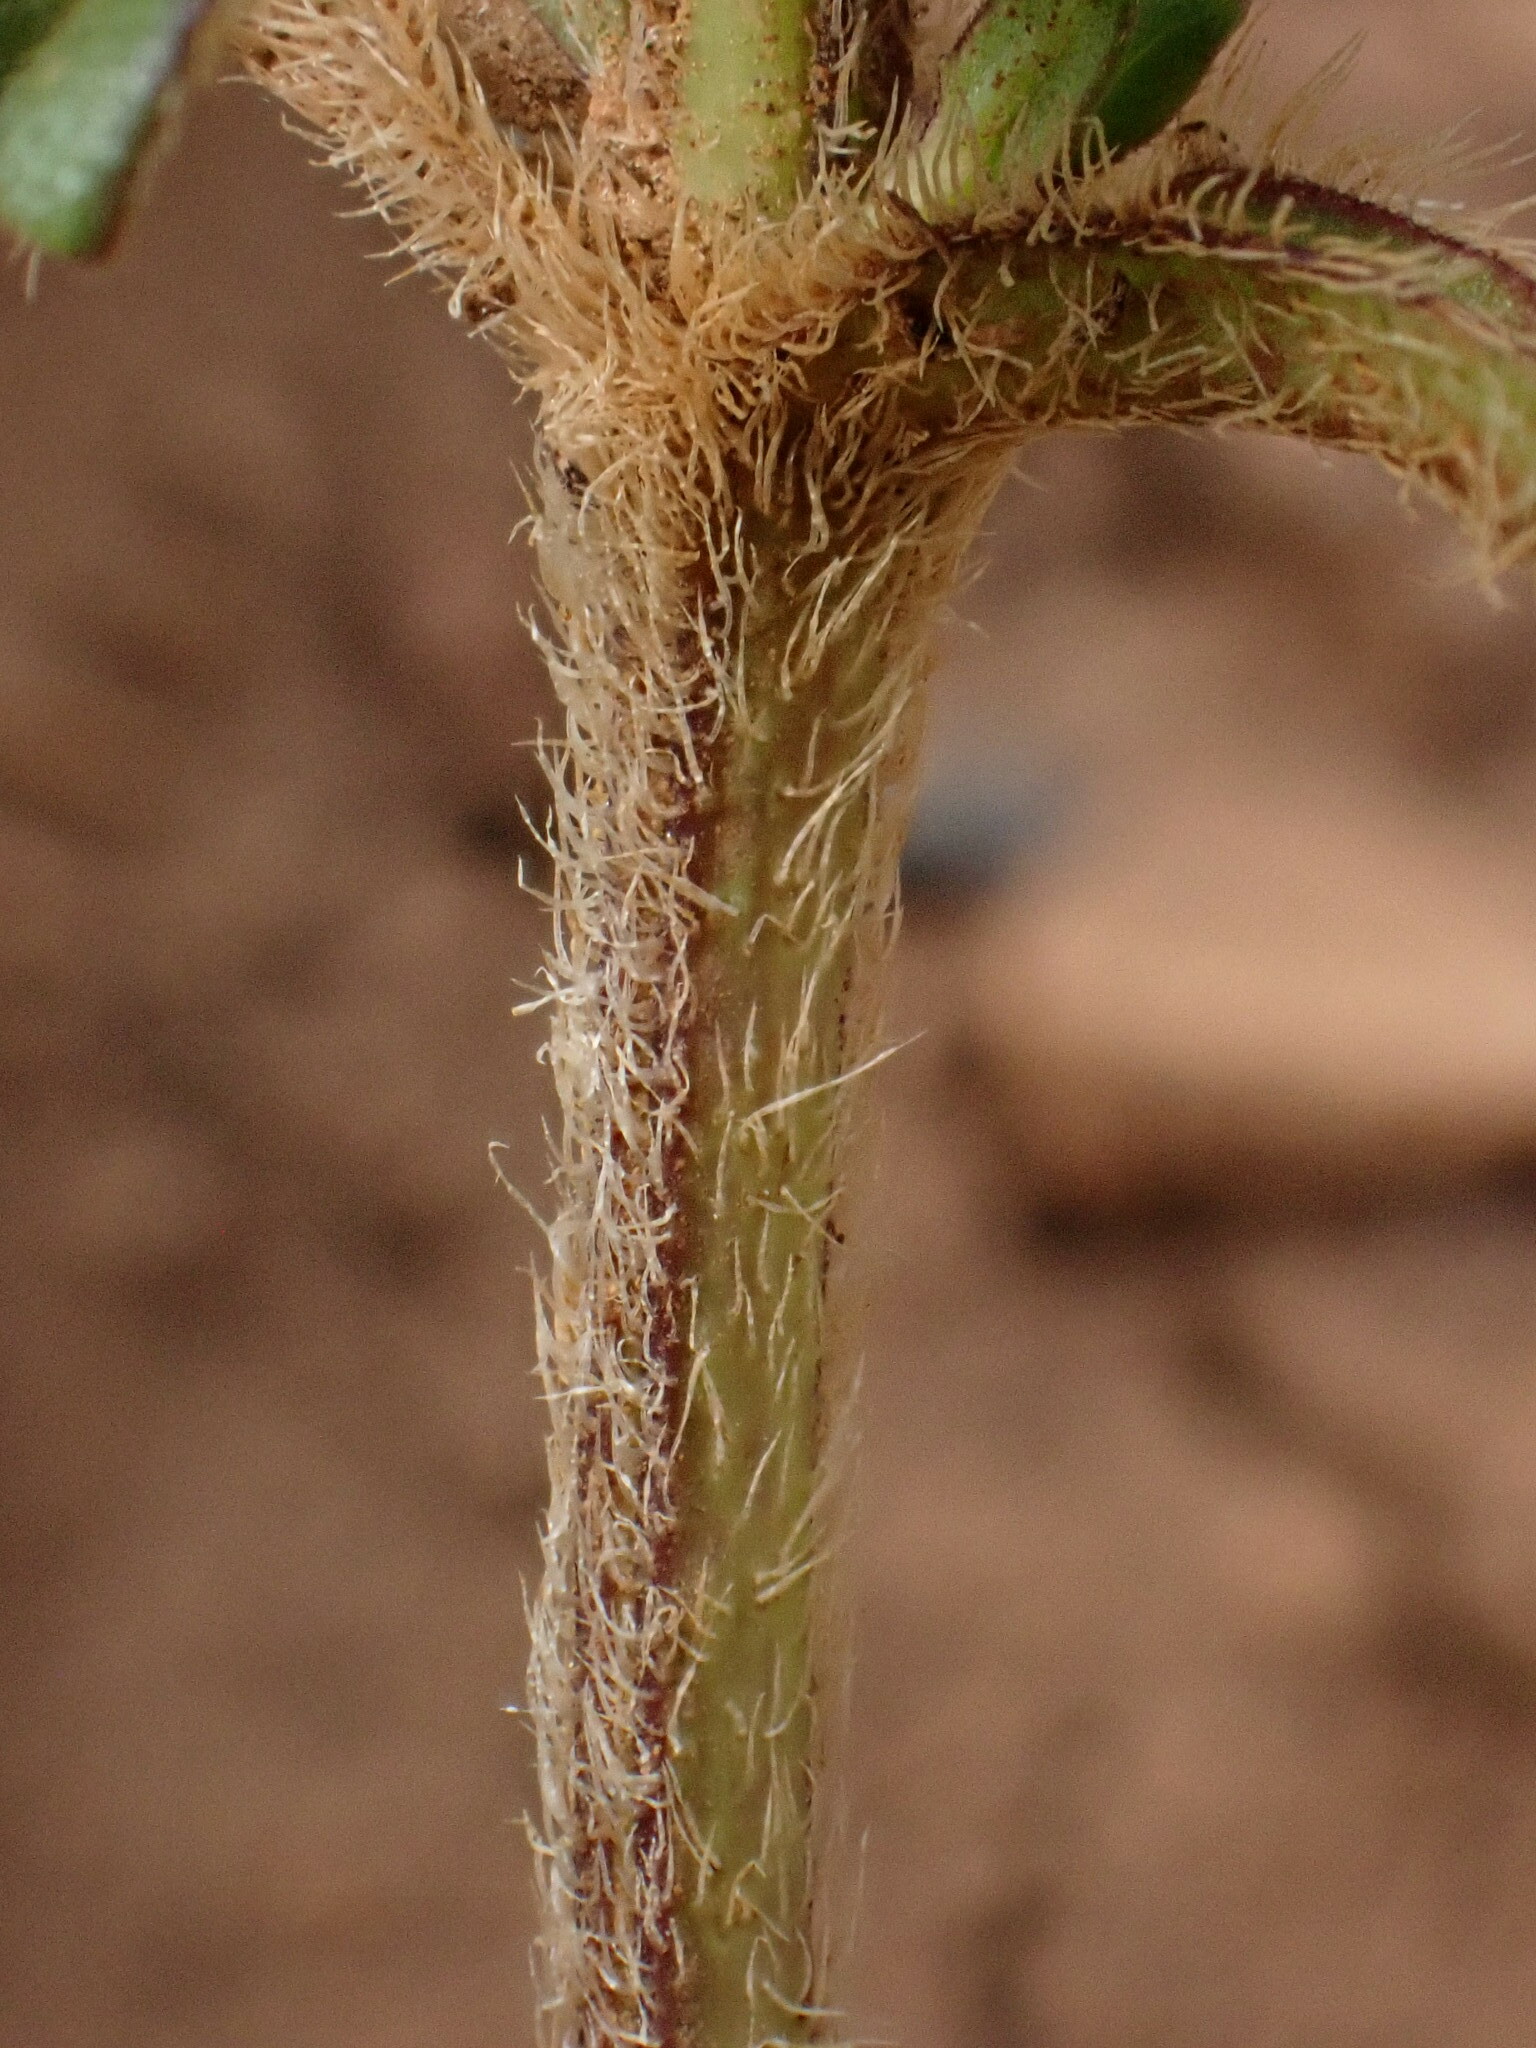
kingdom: Plantae
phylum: Tracheophyta
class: Magnoliopsida
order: Lamiales
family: Lamiaceae
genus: Prunella
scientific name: Prunella laciniata
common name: Cut-leaved selfheal
